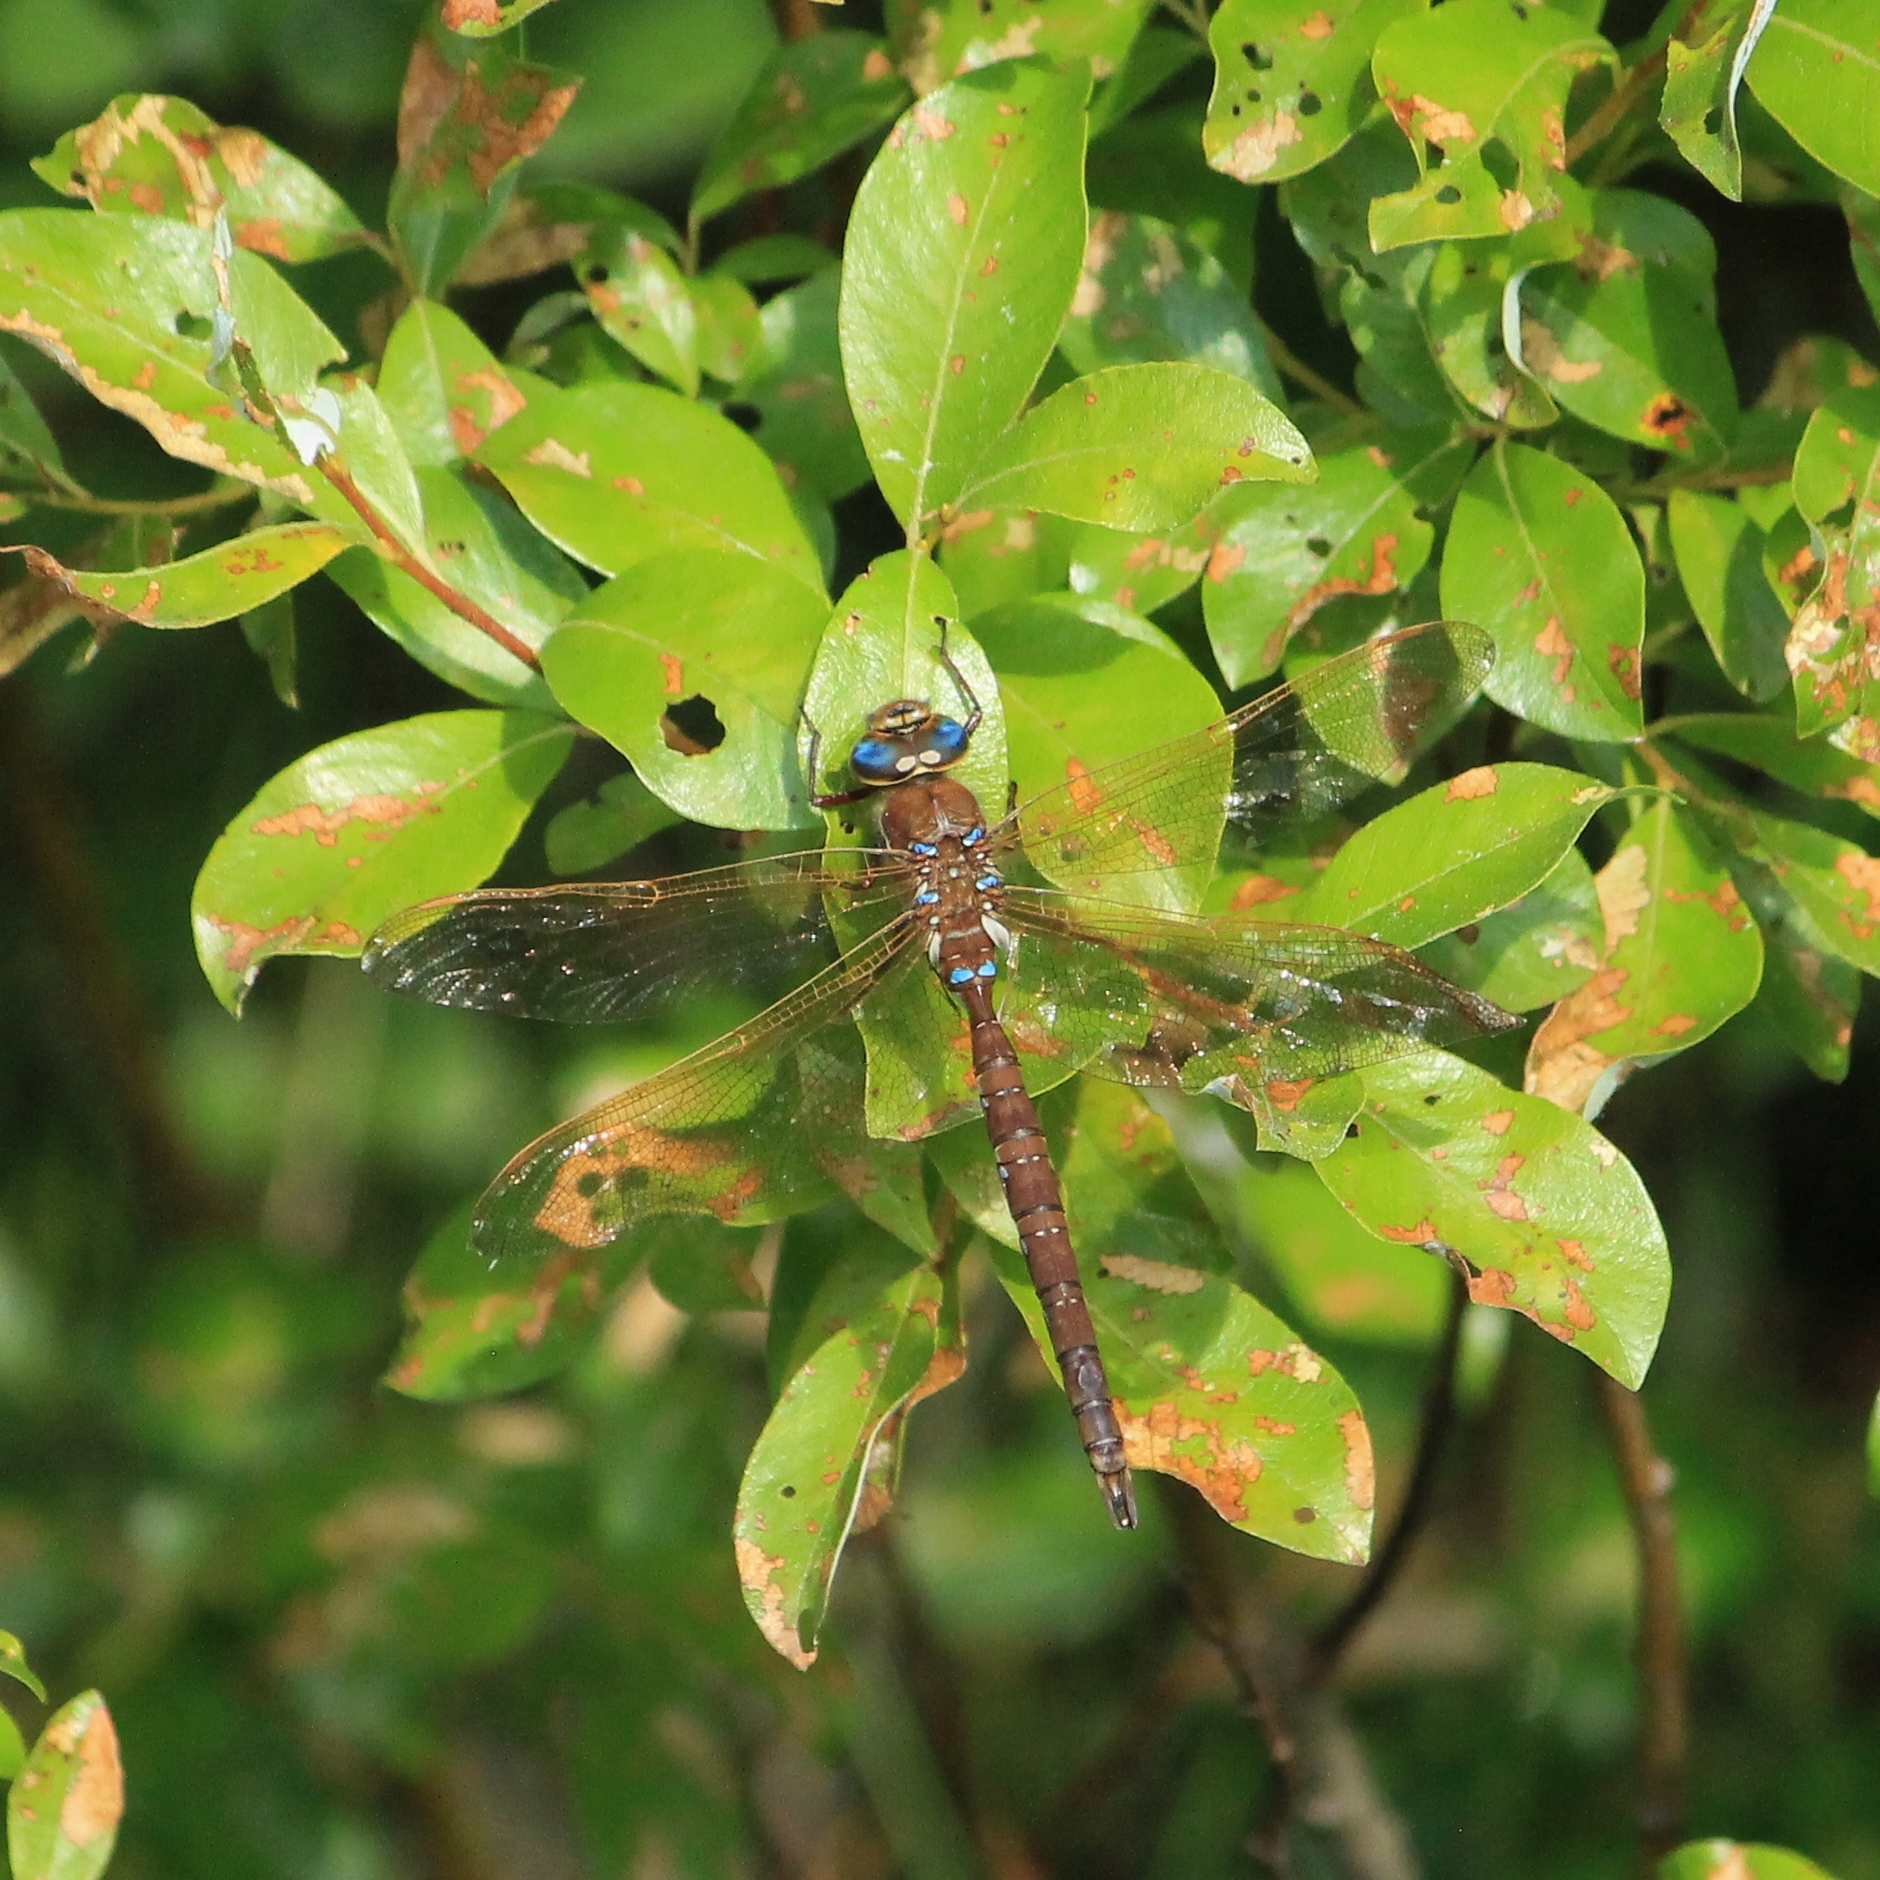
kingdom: Animalia
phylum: Arthropoda
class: Insecta
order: Odonata
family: Aeshnidae
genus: Aeshna
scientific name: Aeshna grandis
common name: Brown hawker
